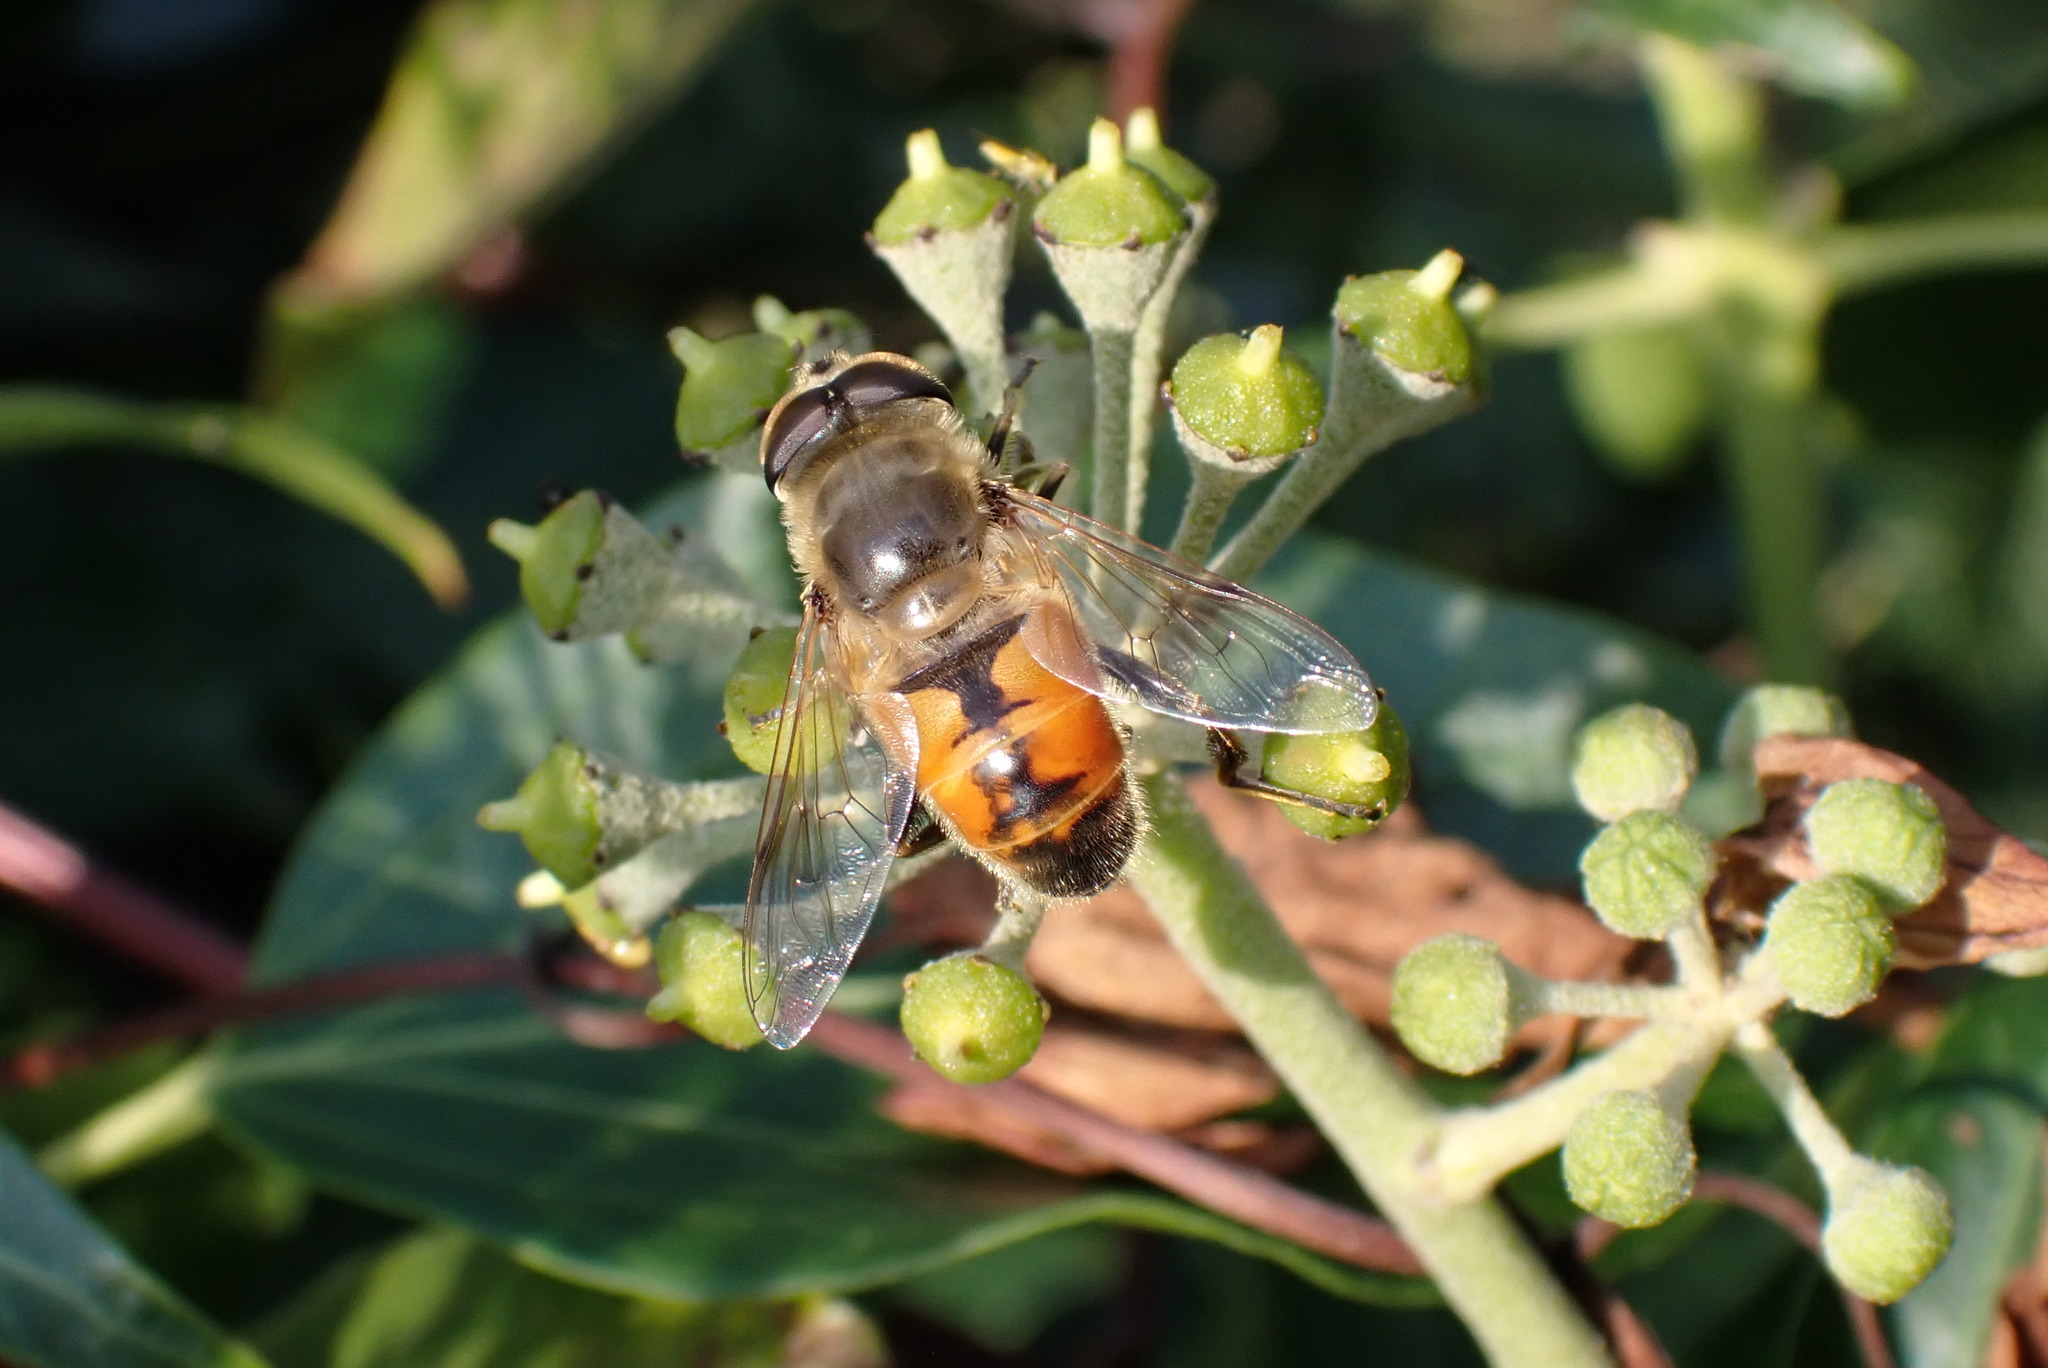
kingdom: Animalia
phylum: Arthropoda
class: Insecta
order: Diptera
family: Syrphidae
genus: Eristalis
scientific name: Eristalis tenax
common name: Drone fly
